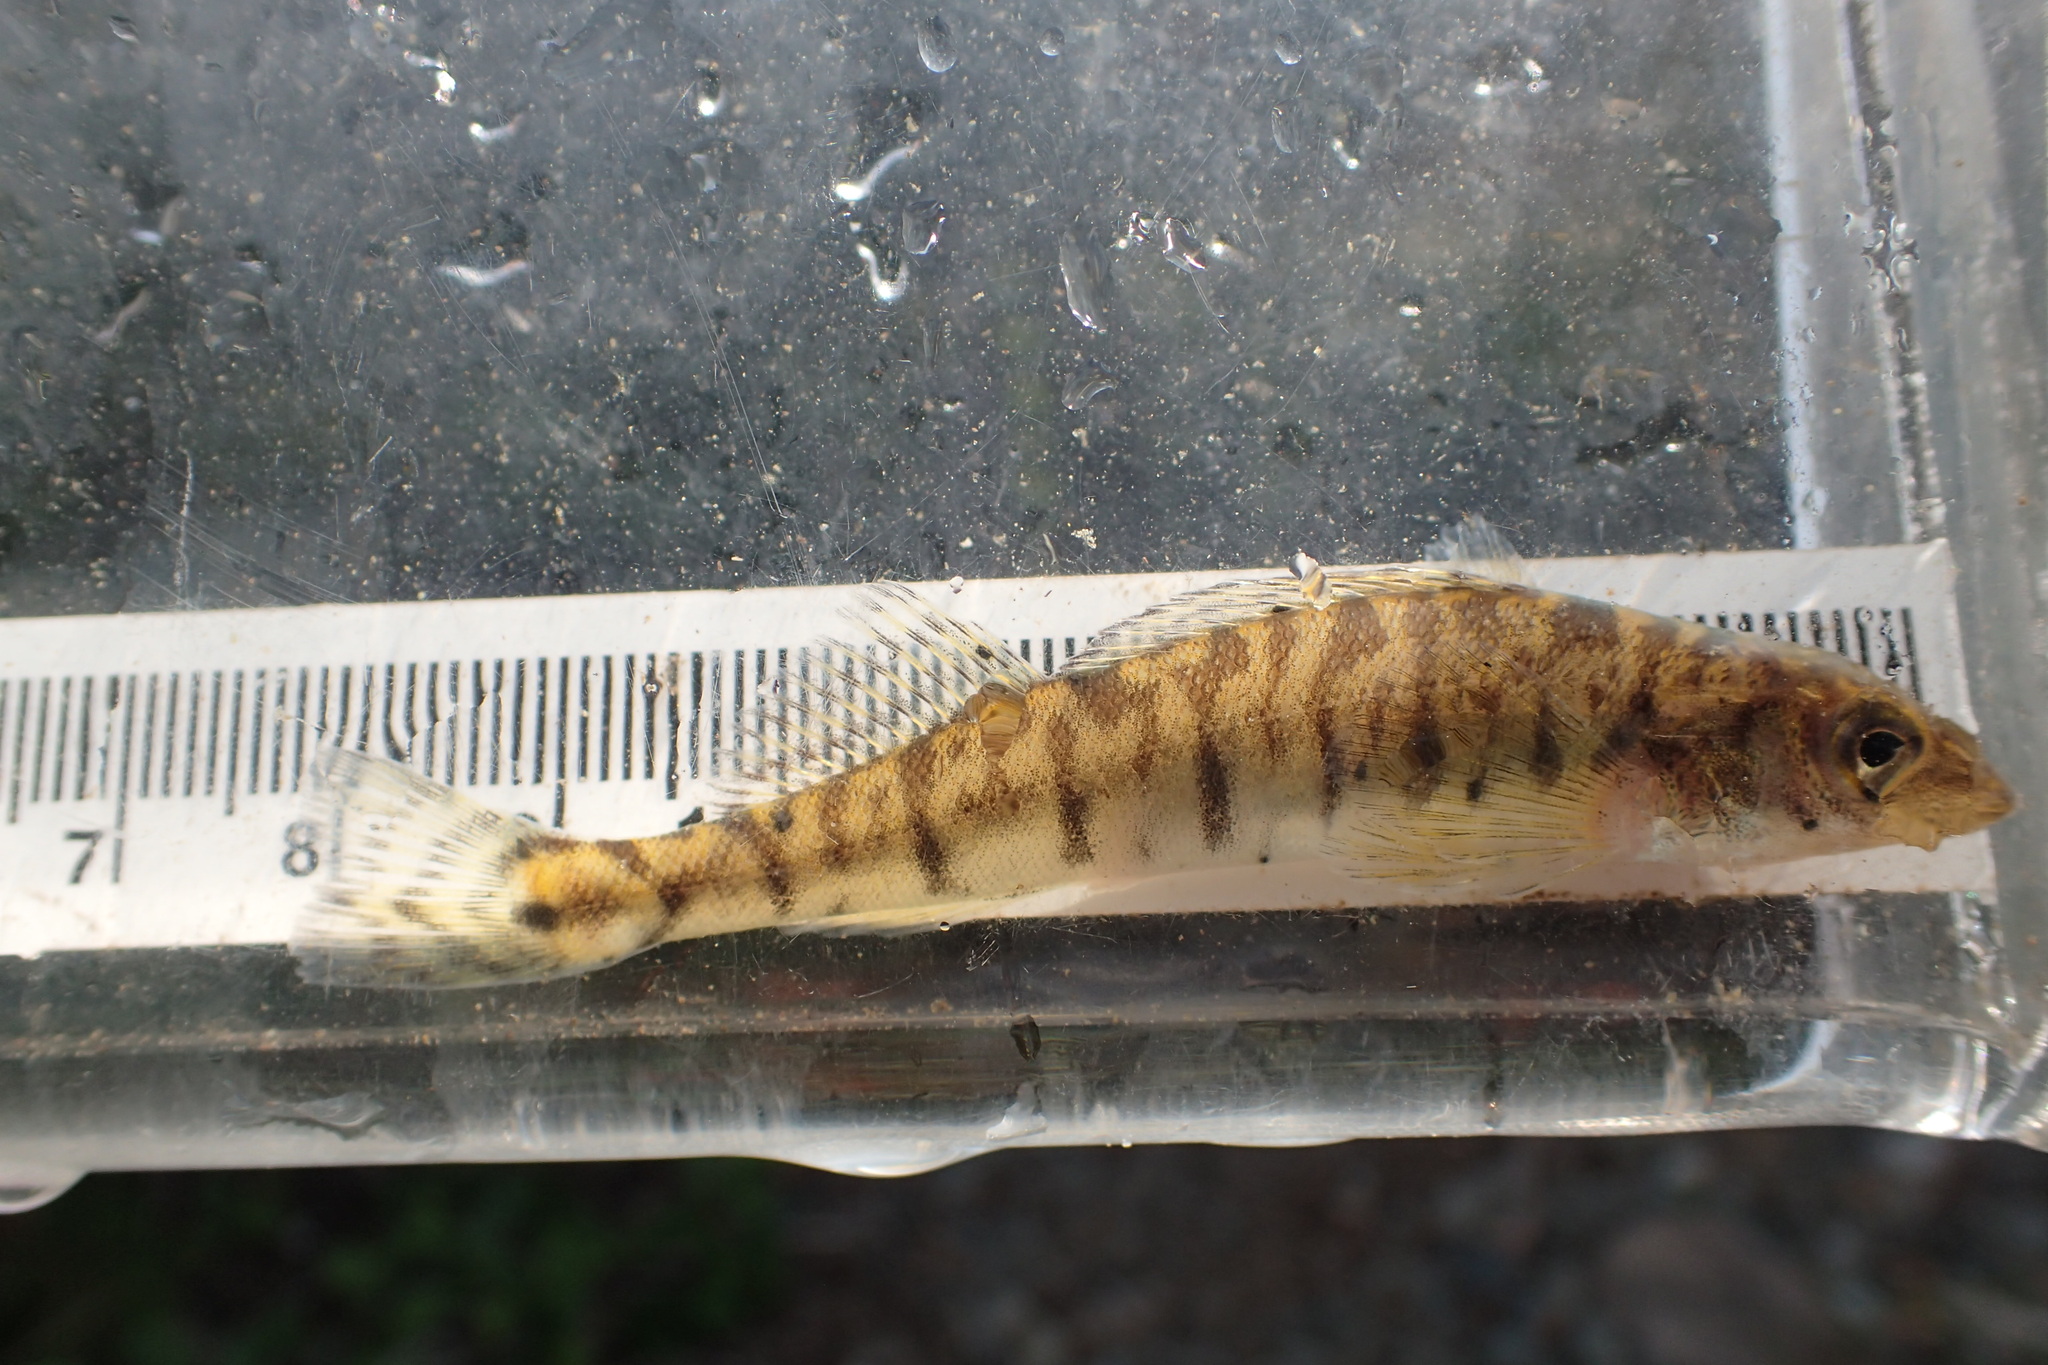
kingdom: Animalia
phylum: Chordata
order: Perciformes
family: Percidae
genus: Percina
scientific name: Percina caprodes
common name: Logperch
